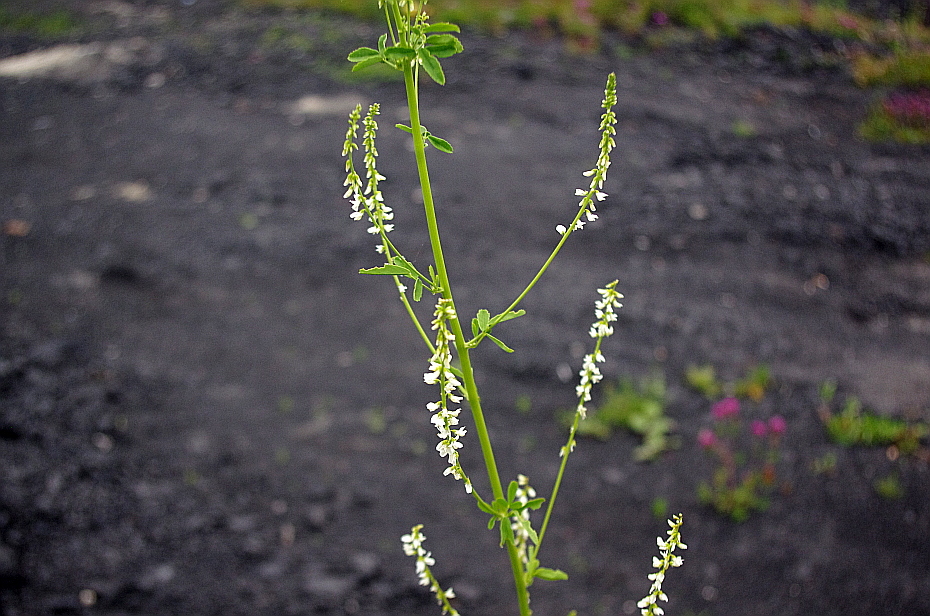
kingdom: Plantae
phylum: Tracheophyta
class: Magnoliopsida
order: Fabales
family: Fabaceae
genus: Melilotus
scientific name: Melilotus albus
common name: White melilot
